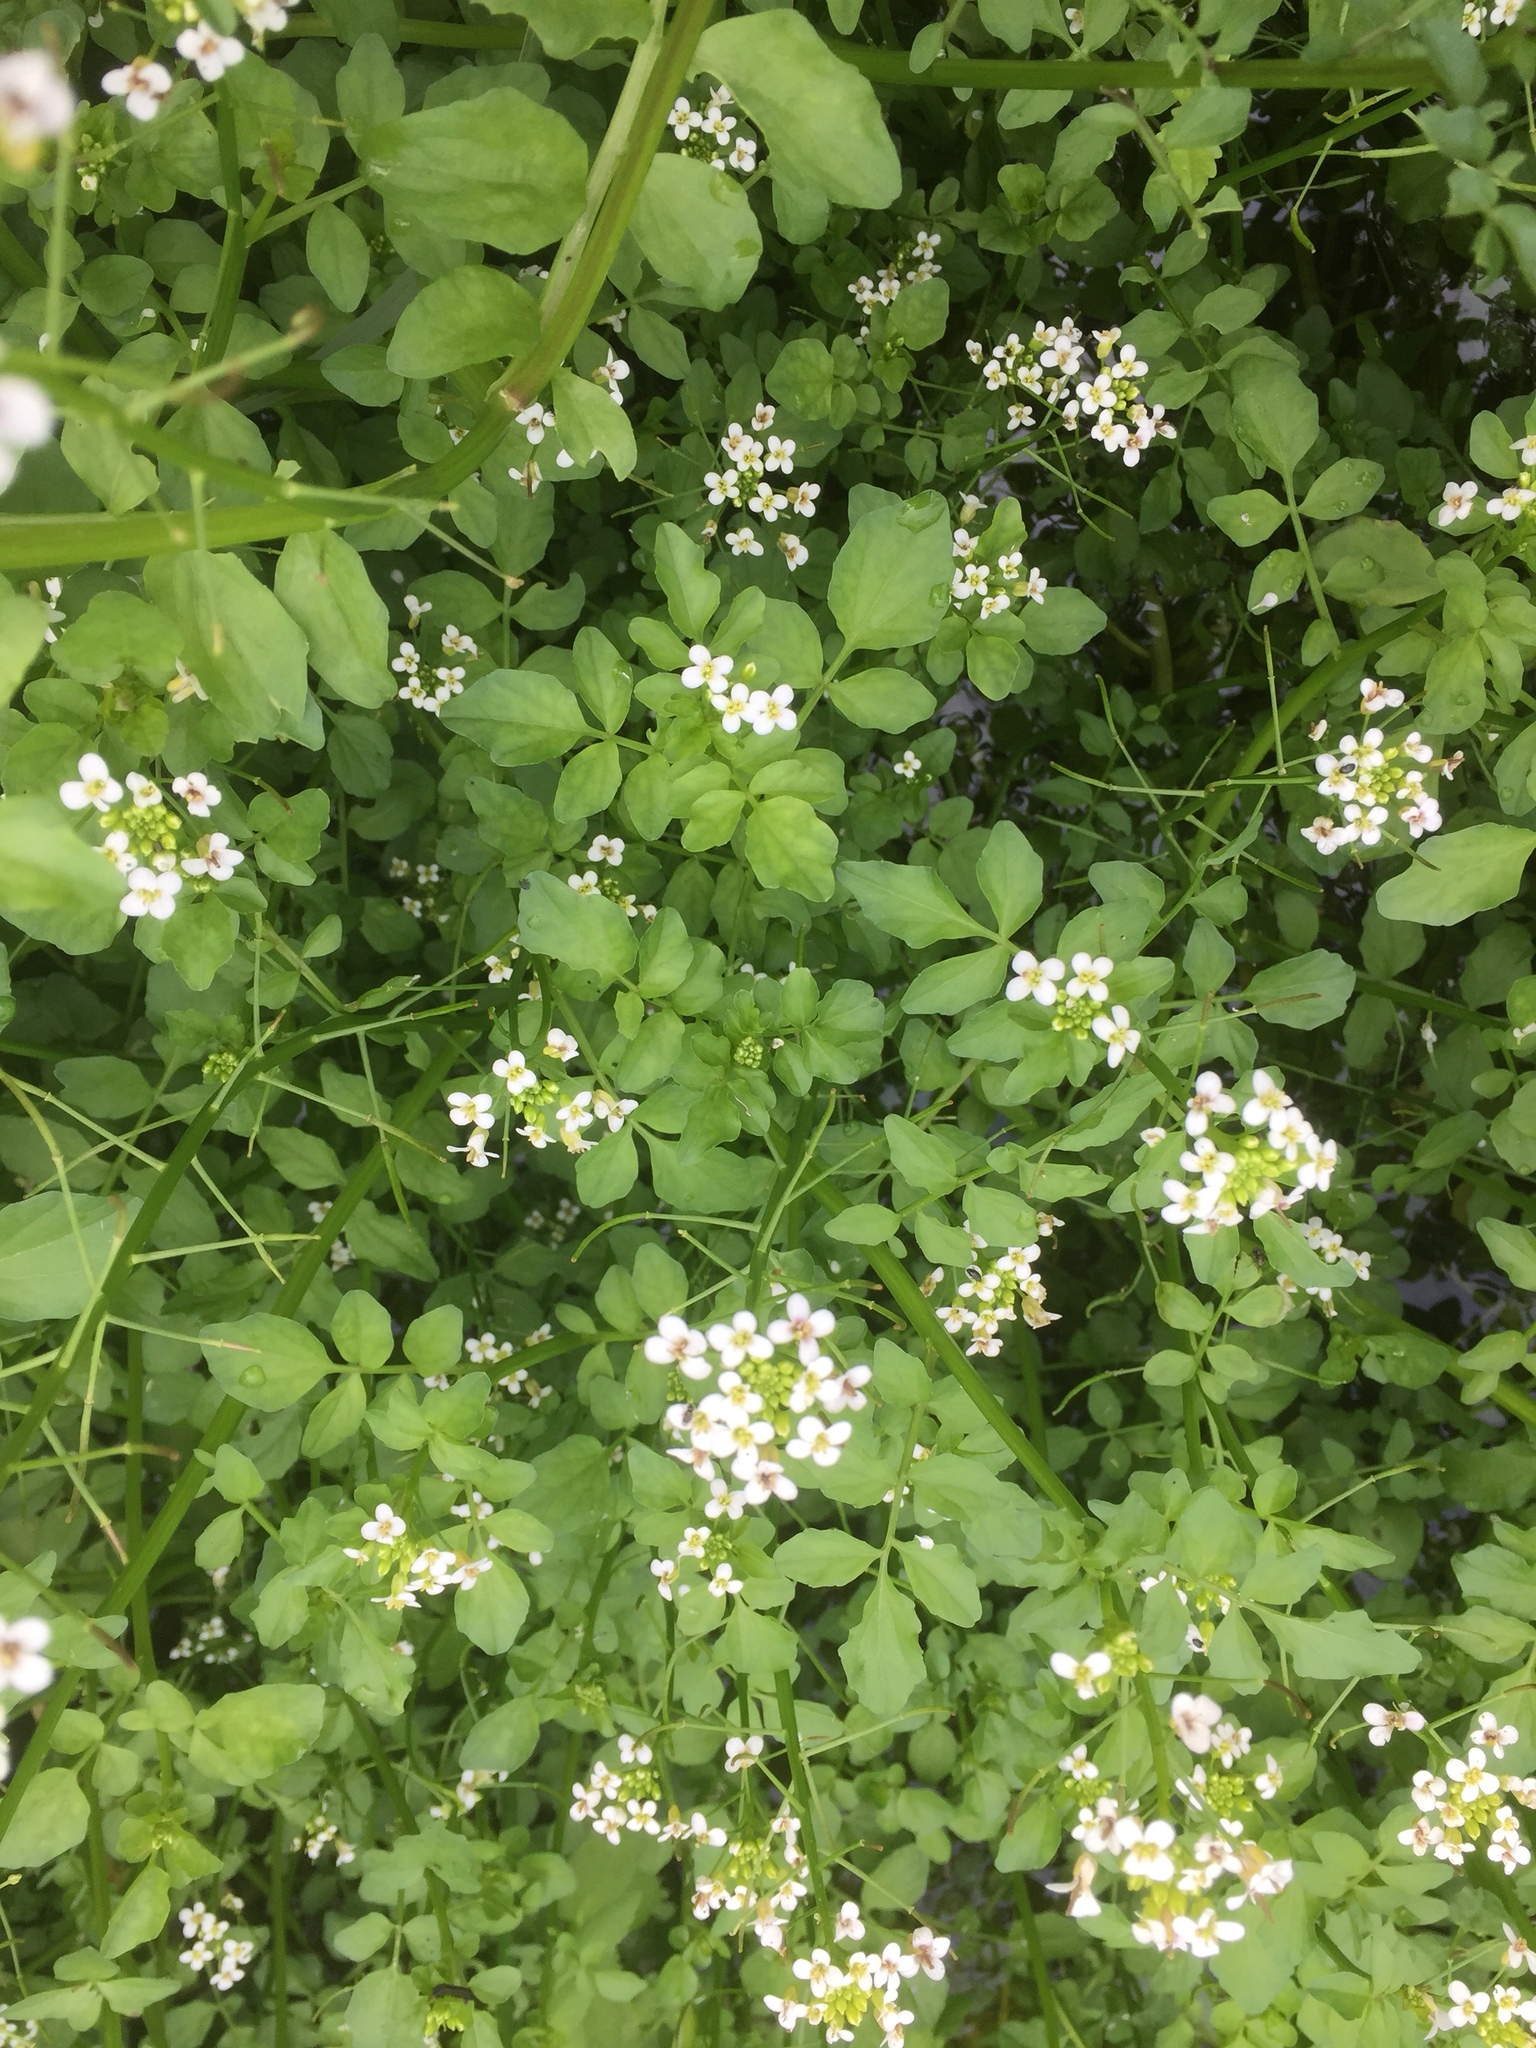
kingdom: Plantae
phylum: Tracheophyta
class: Magnoliopsida
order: Brassicales
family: Brassicaceae
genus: Nasturtium
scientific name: Nasturtium officinale
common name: Watercress
